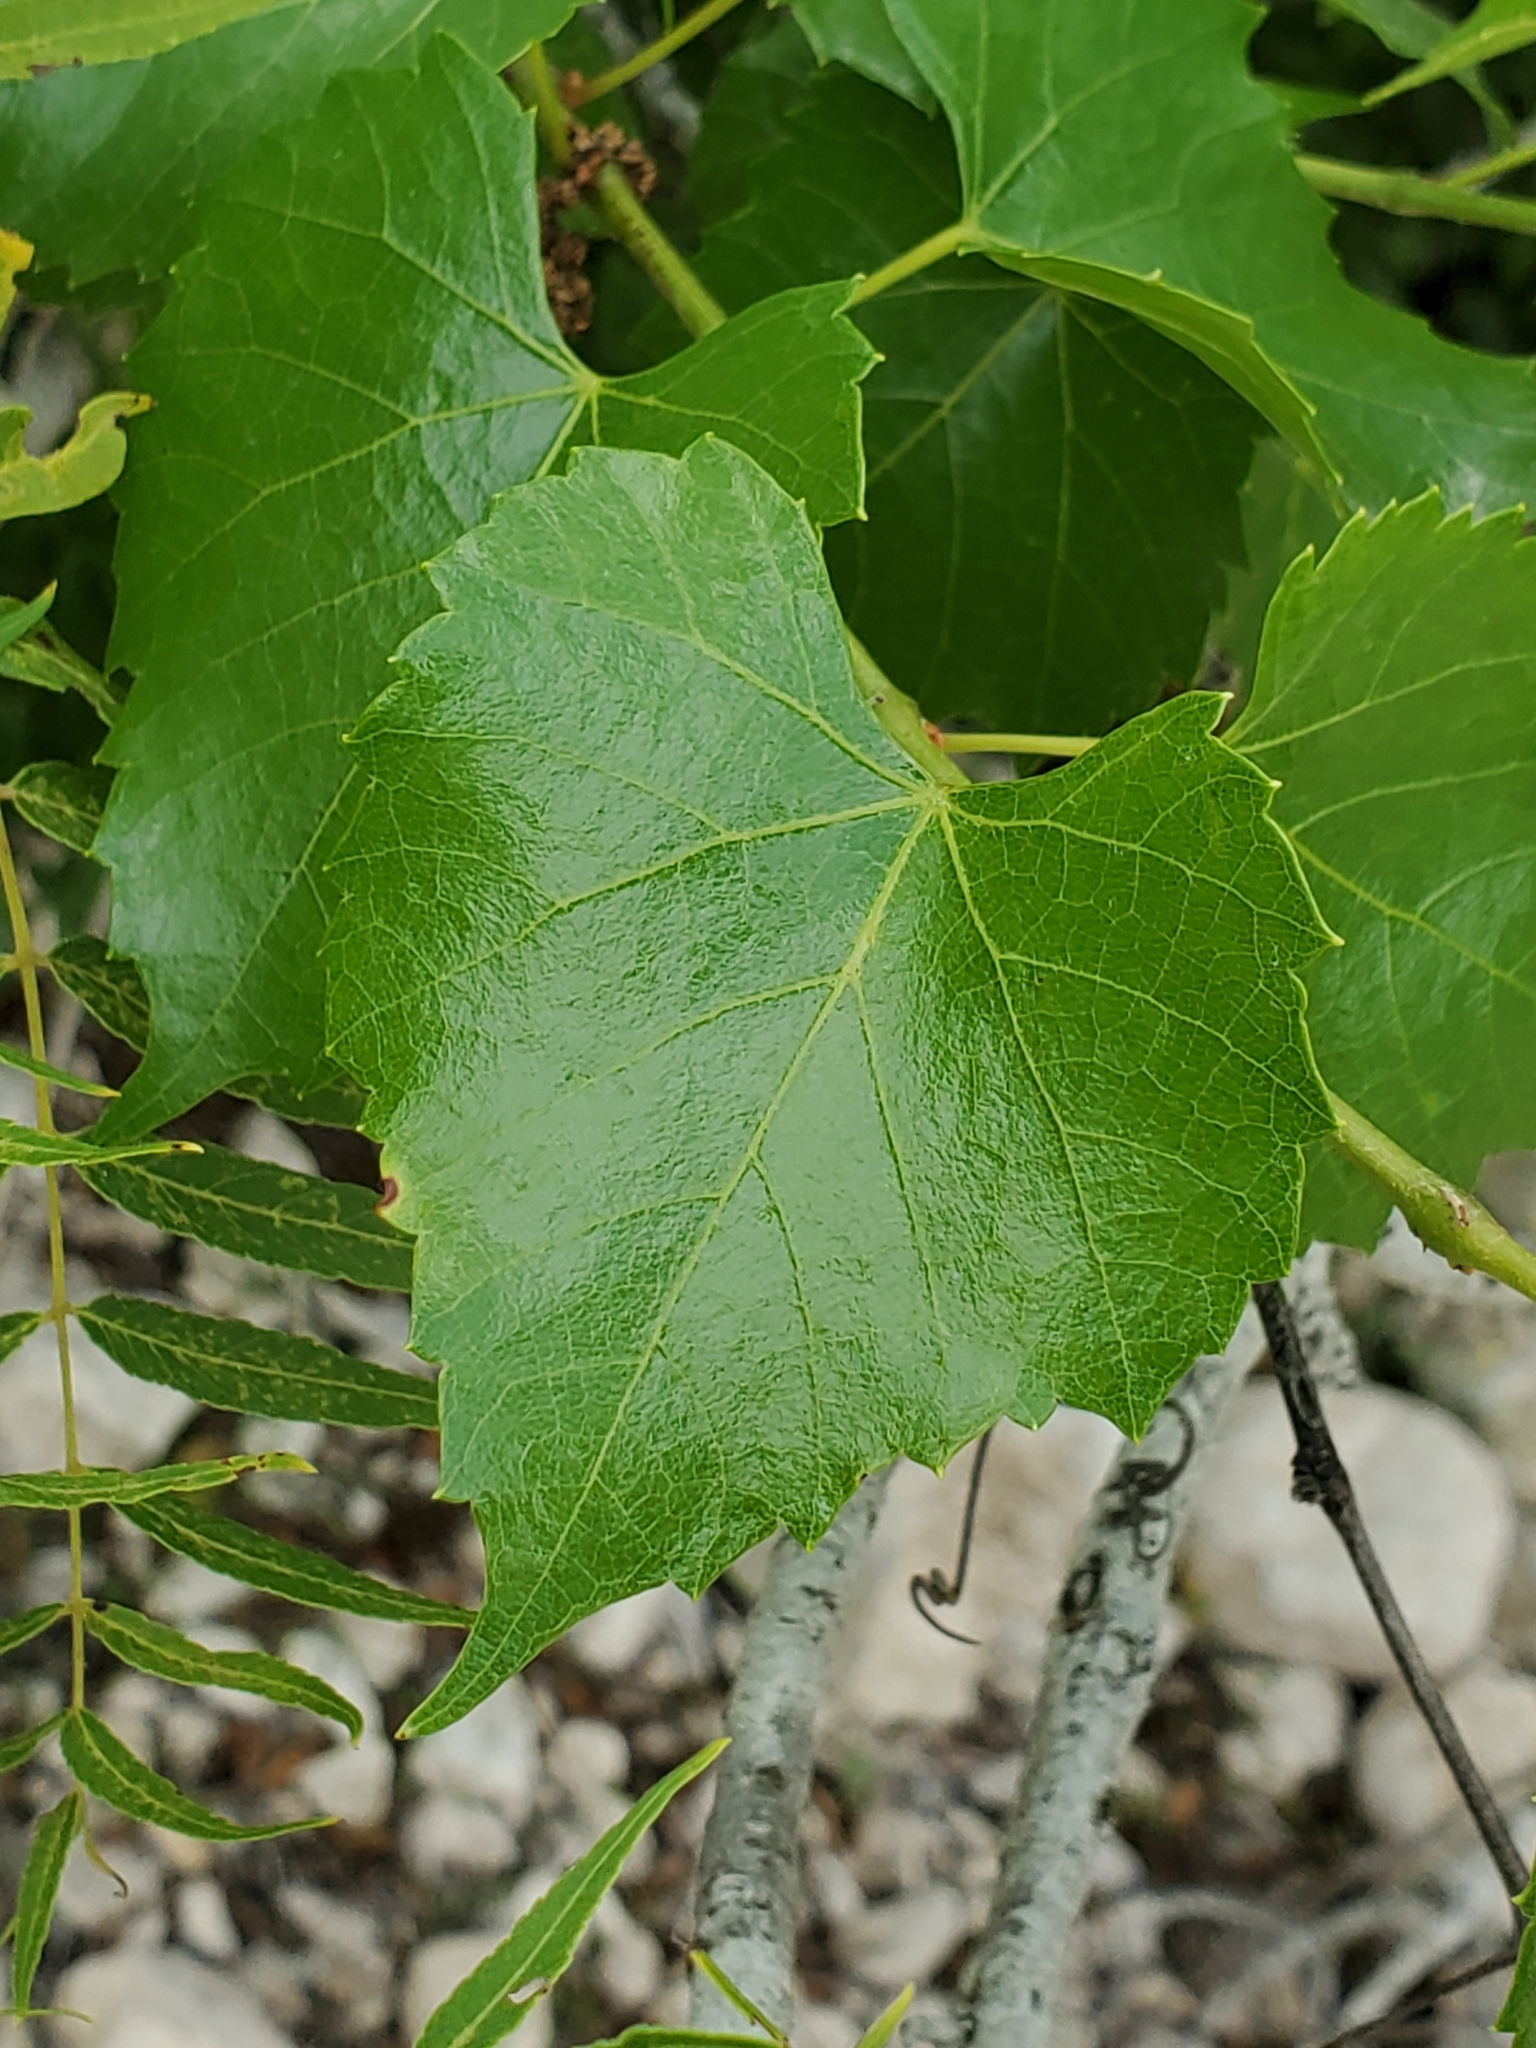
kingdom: Plantae
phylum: Tracheophyta
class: Magnoliopsida
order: Vitales
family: Vitaceae
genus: Vitis
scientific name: Vitis monticola
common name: Mountain grape
